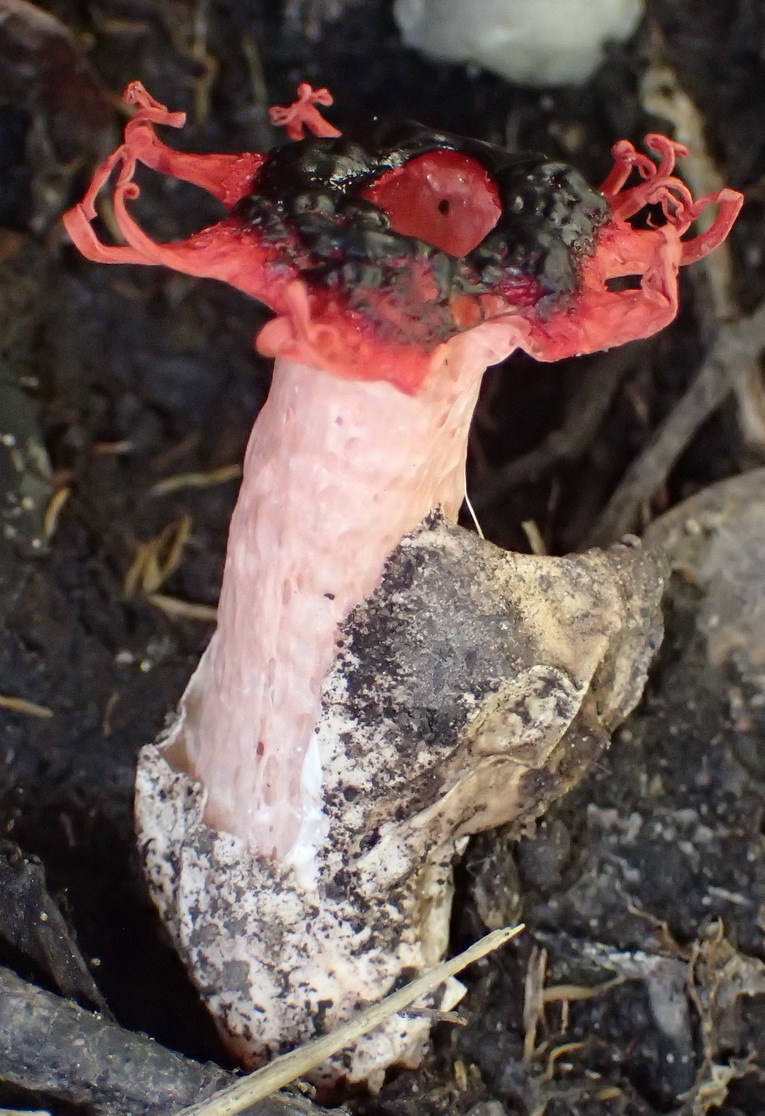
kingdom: Fungi
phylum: Basidiomycota
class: Agaricomycetes
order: Phallales
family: Phallaceae
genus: Aseroe
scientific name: Aseroe rubra
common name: Starfish fungus
